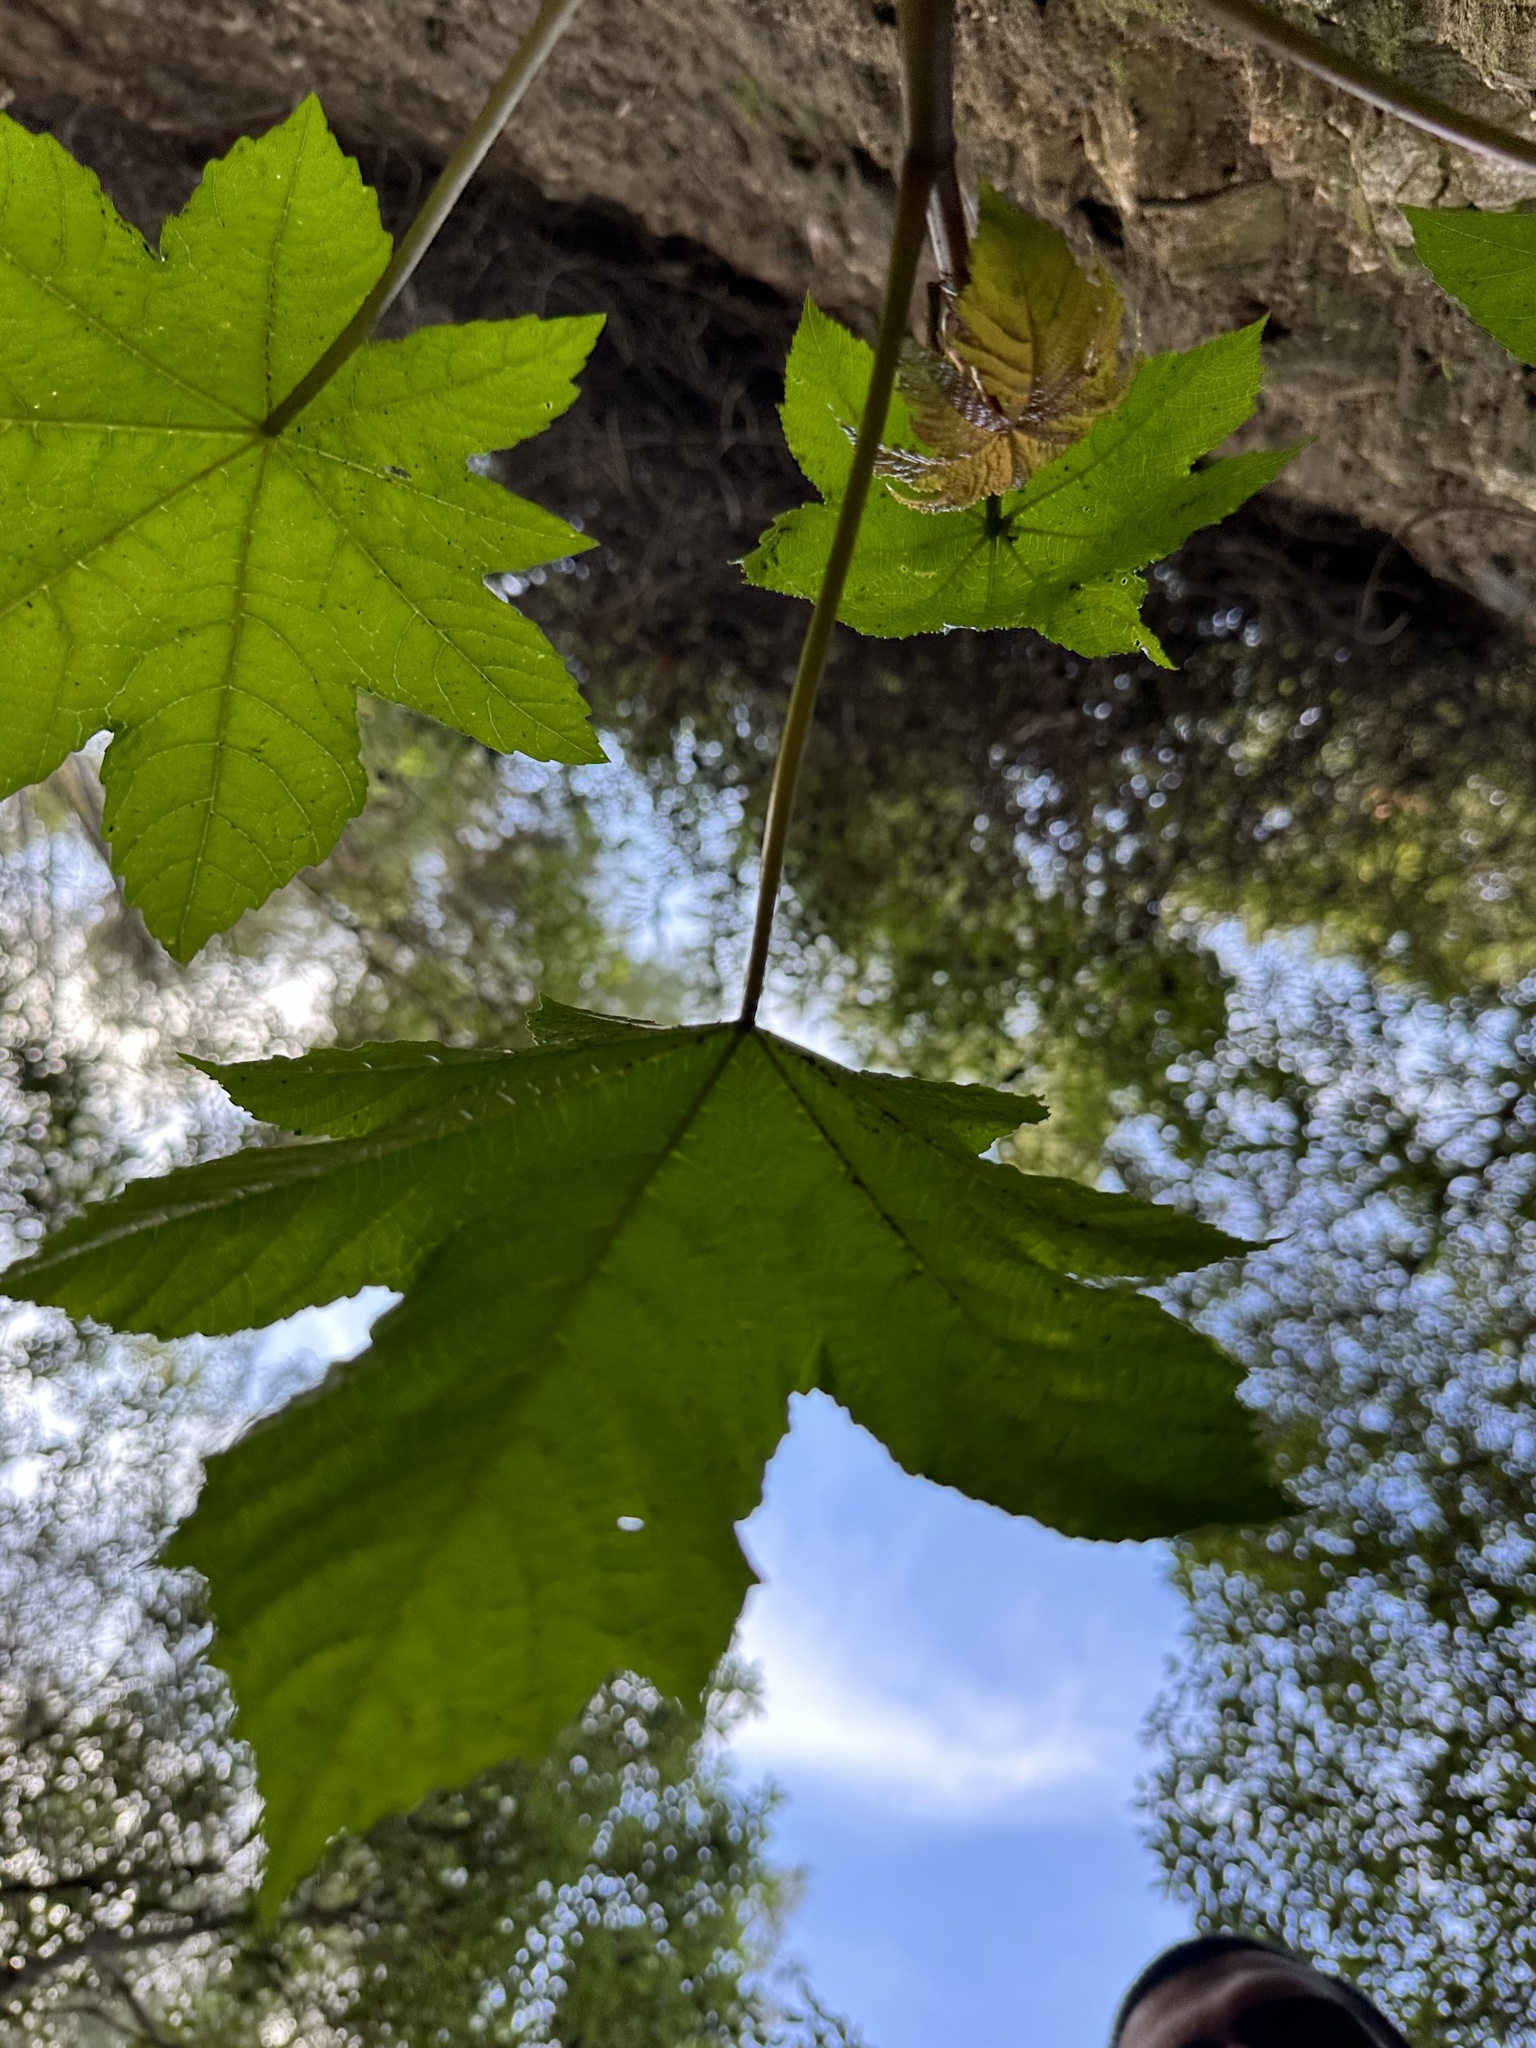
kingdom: Plantae
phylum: Tracheophyta
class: Magnoliopsida
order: Malpighiales
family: Euphorbiaceae
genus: Ricinus
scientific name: Ricinus communis
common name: Castor-oil-plant
